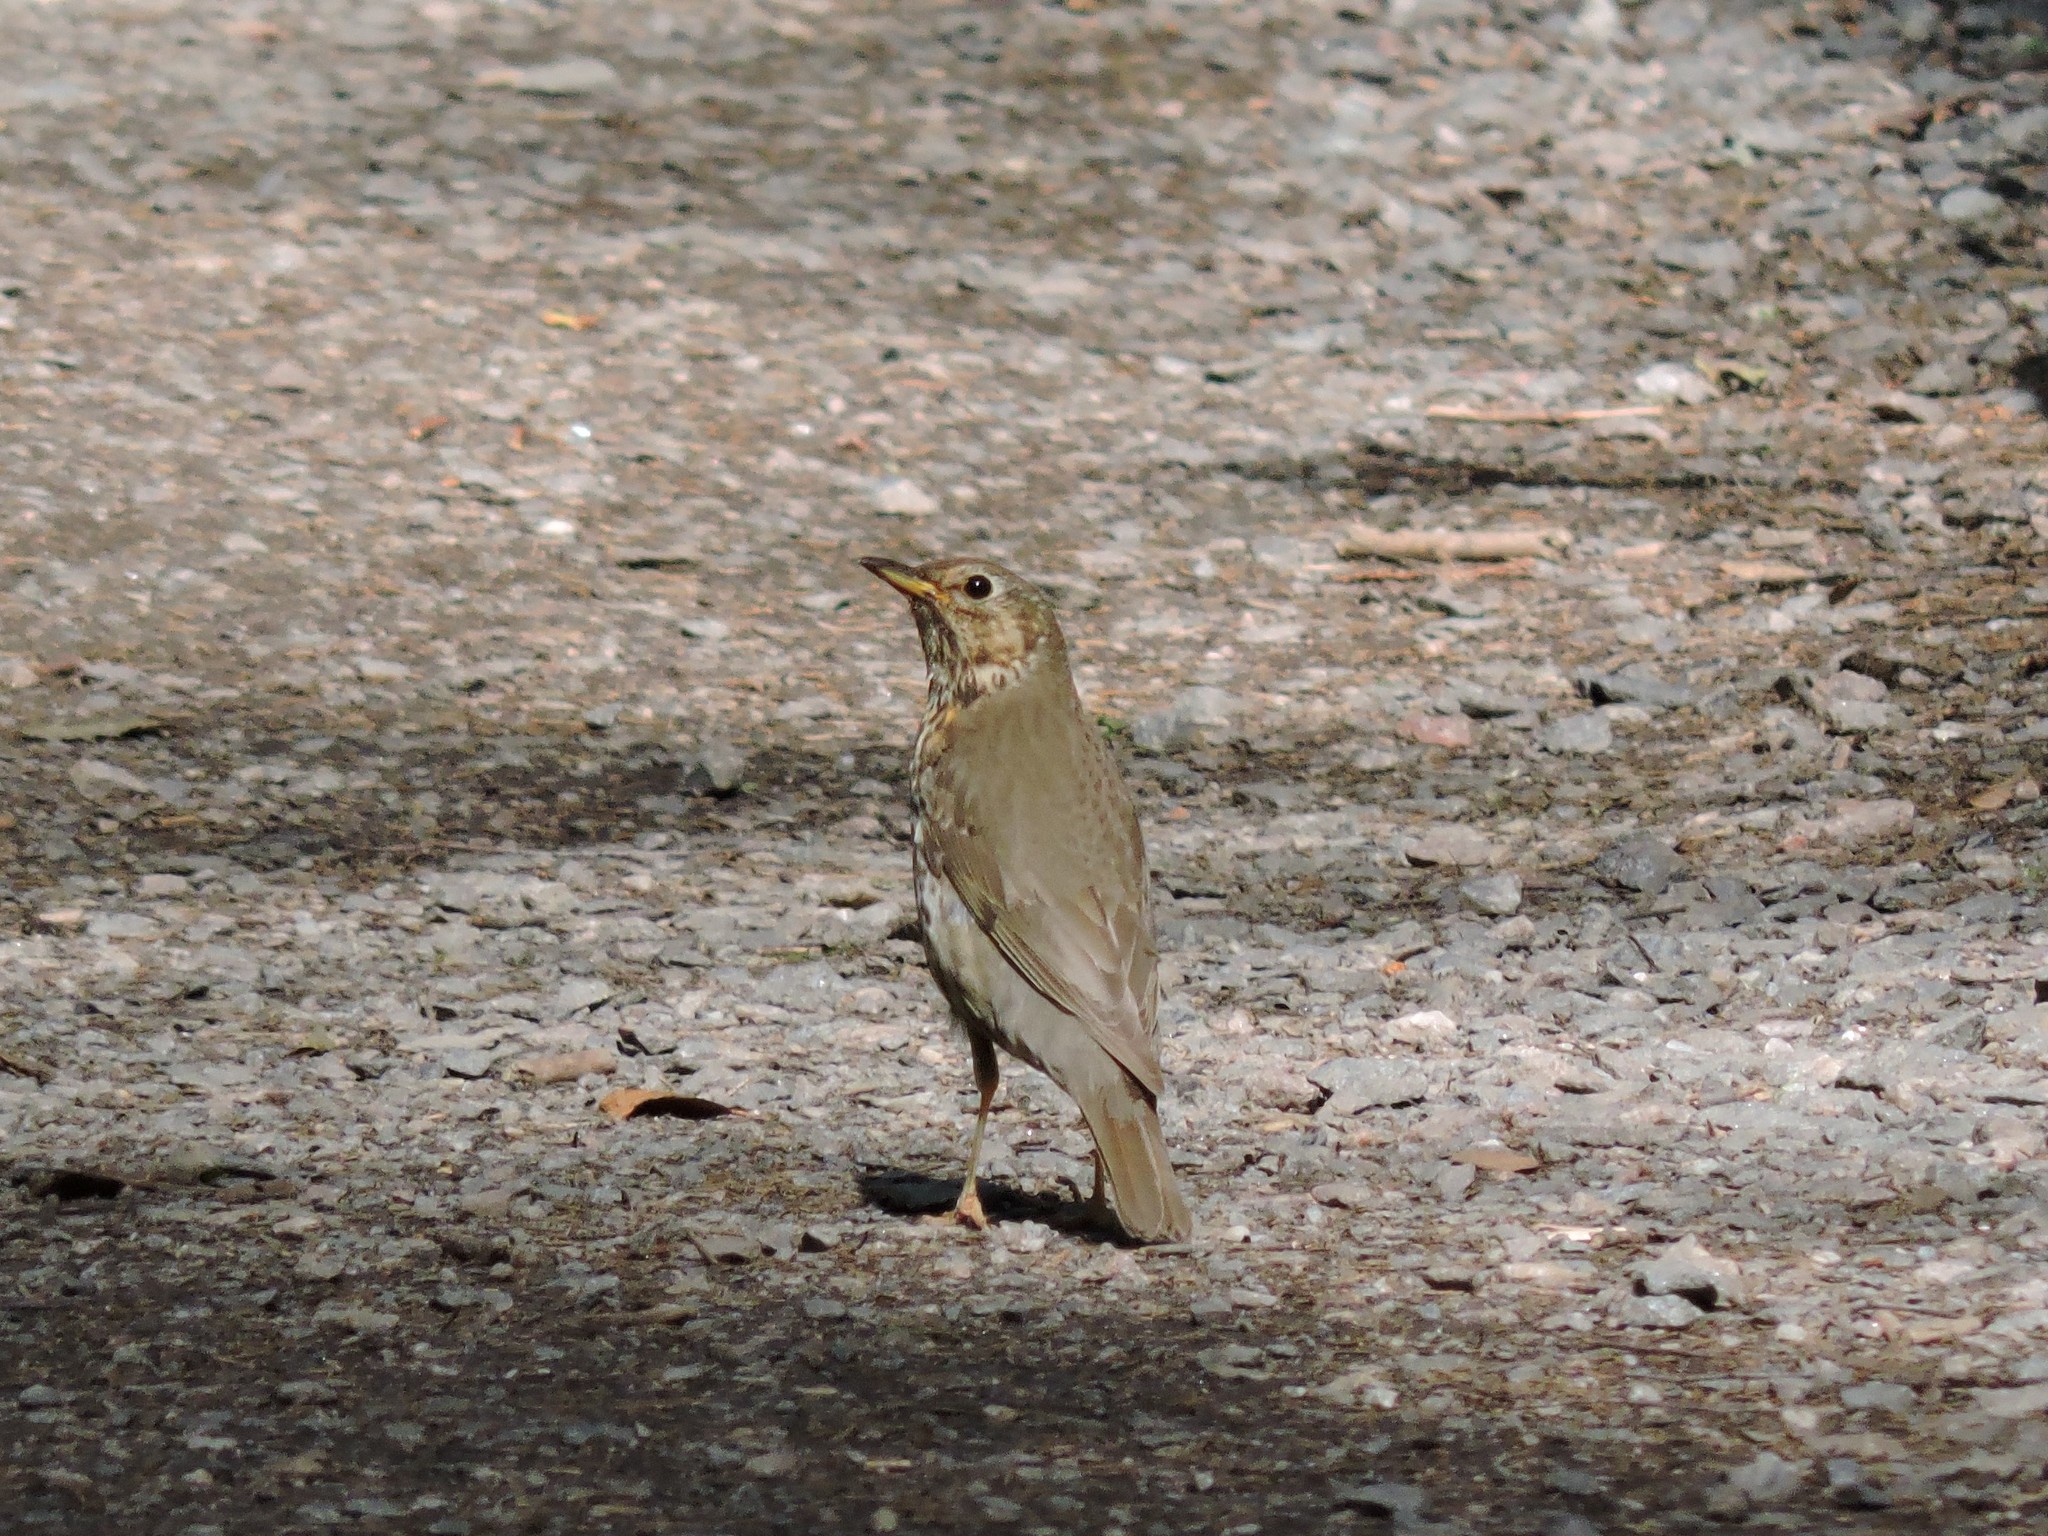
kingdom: Animalia
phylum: Chordata
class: Aves
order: Passeriformes
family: Turdidae
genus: Turdus
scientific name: Turdus philomelos
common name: Song thrush
